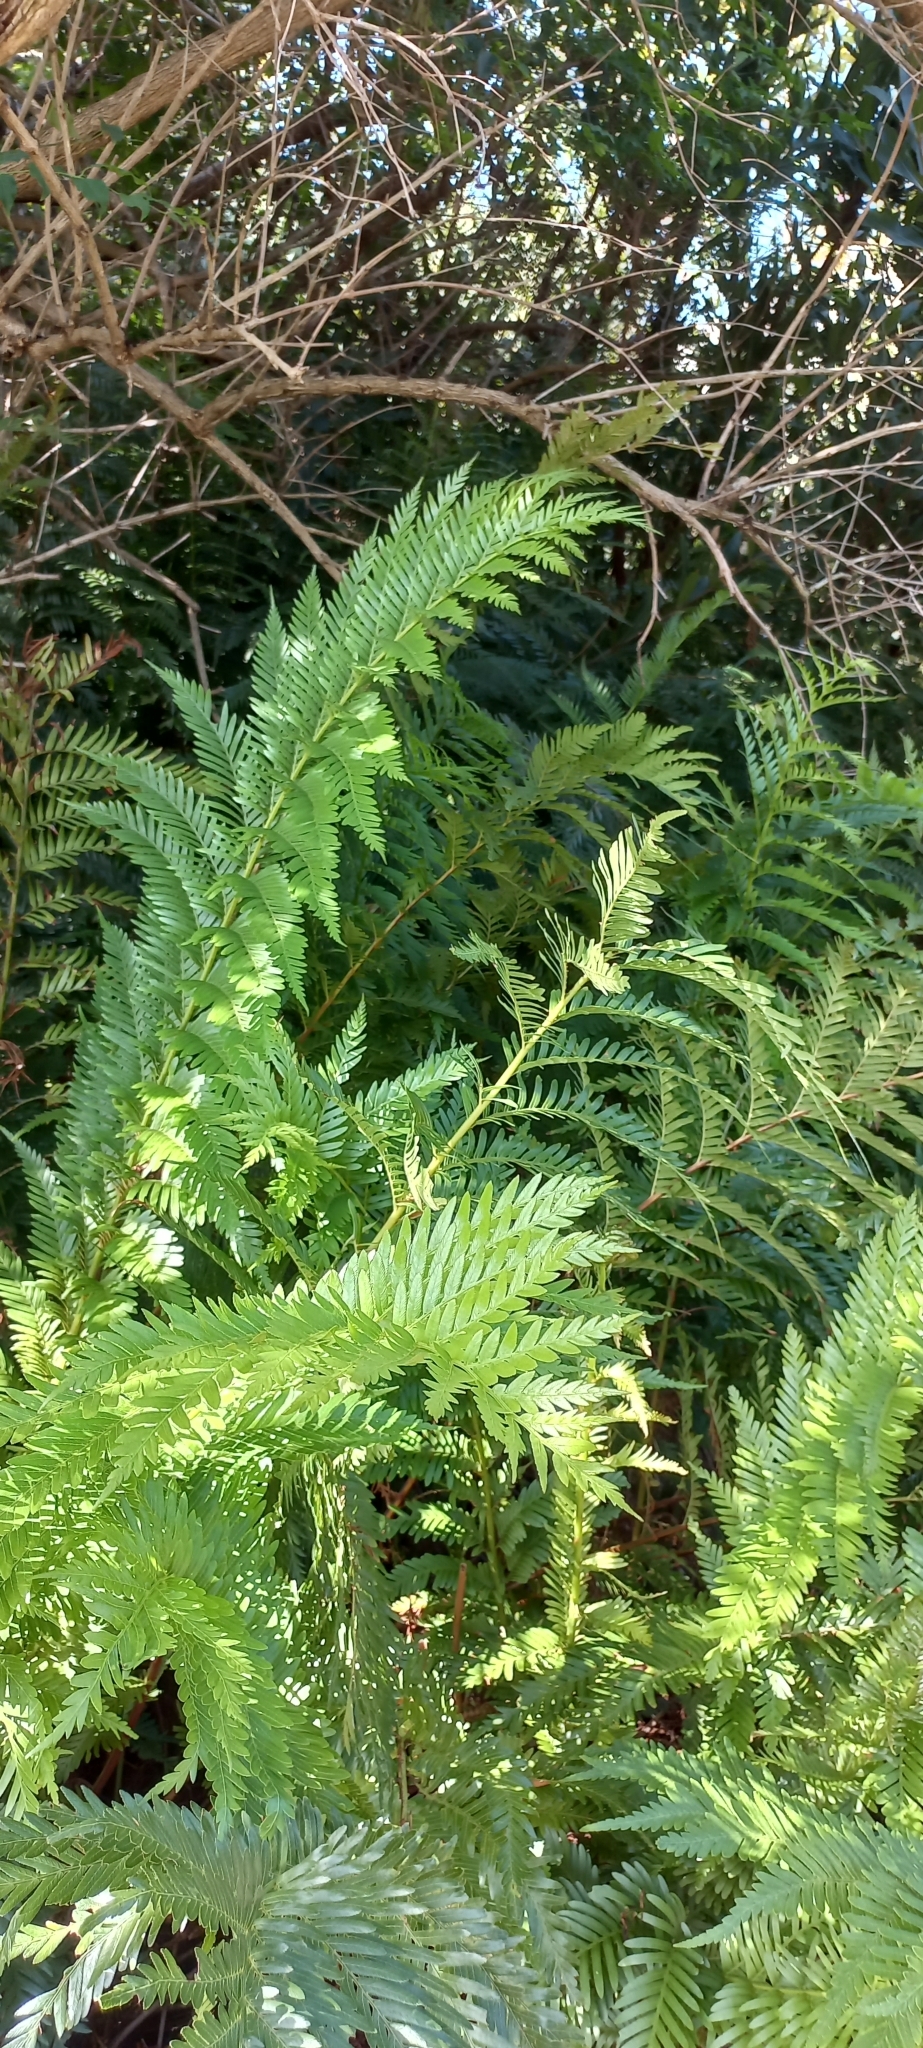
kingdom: Plantae
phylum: Tracheophyta
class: Polypodiopsida
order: Osmundales
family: Osmundaceae
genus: Todea
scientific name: Todea barbara
